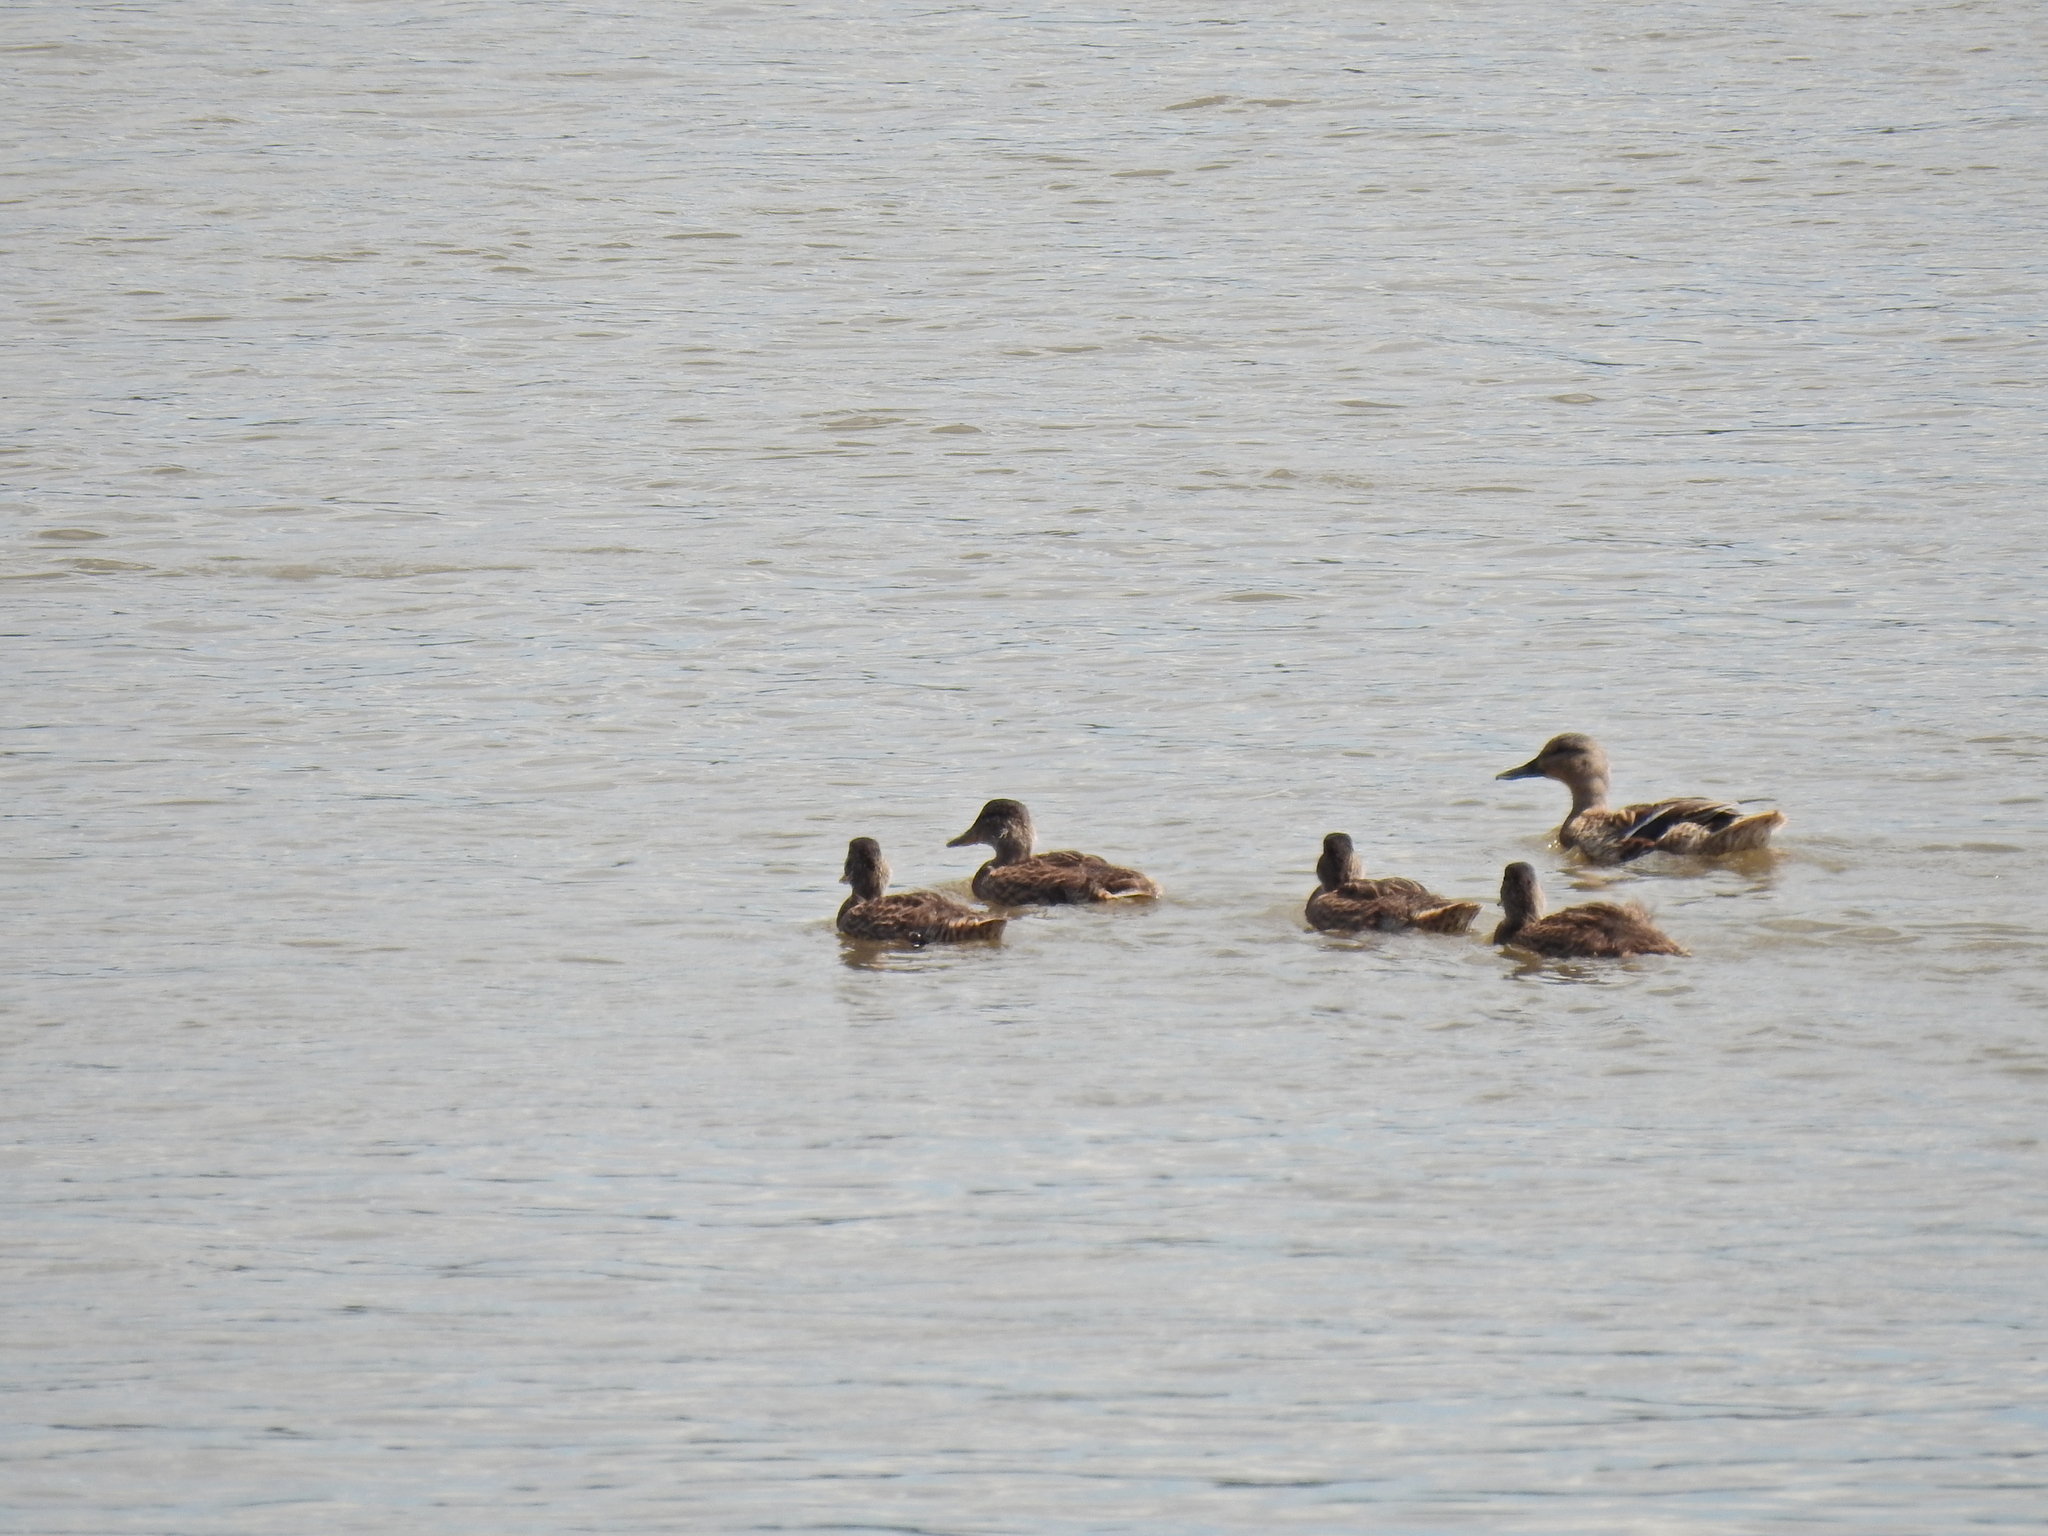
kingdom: Animalia
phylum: Chordata
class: Aves
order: Anseriformes
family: Anatidae
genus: Anas
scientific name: Anas platyrhynchos
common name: Mallard
